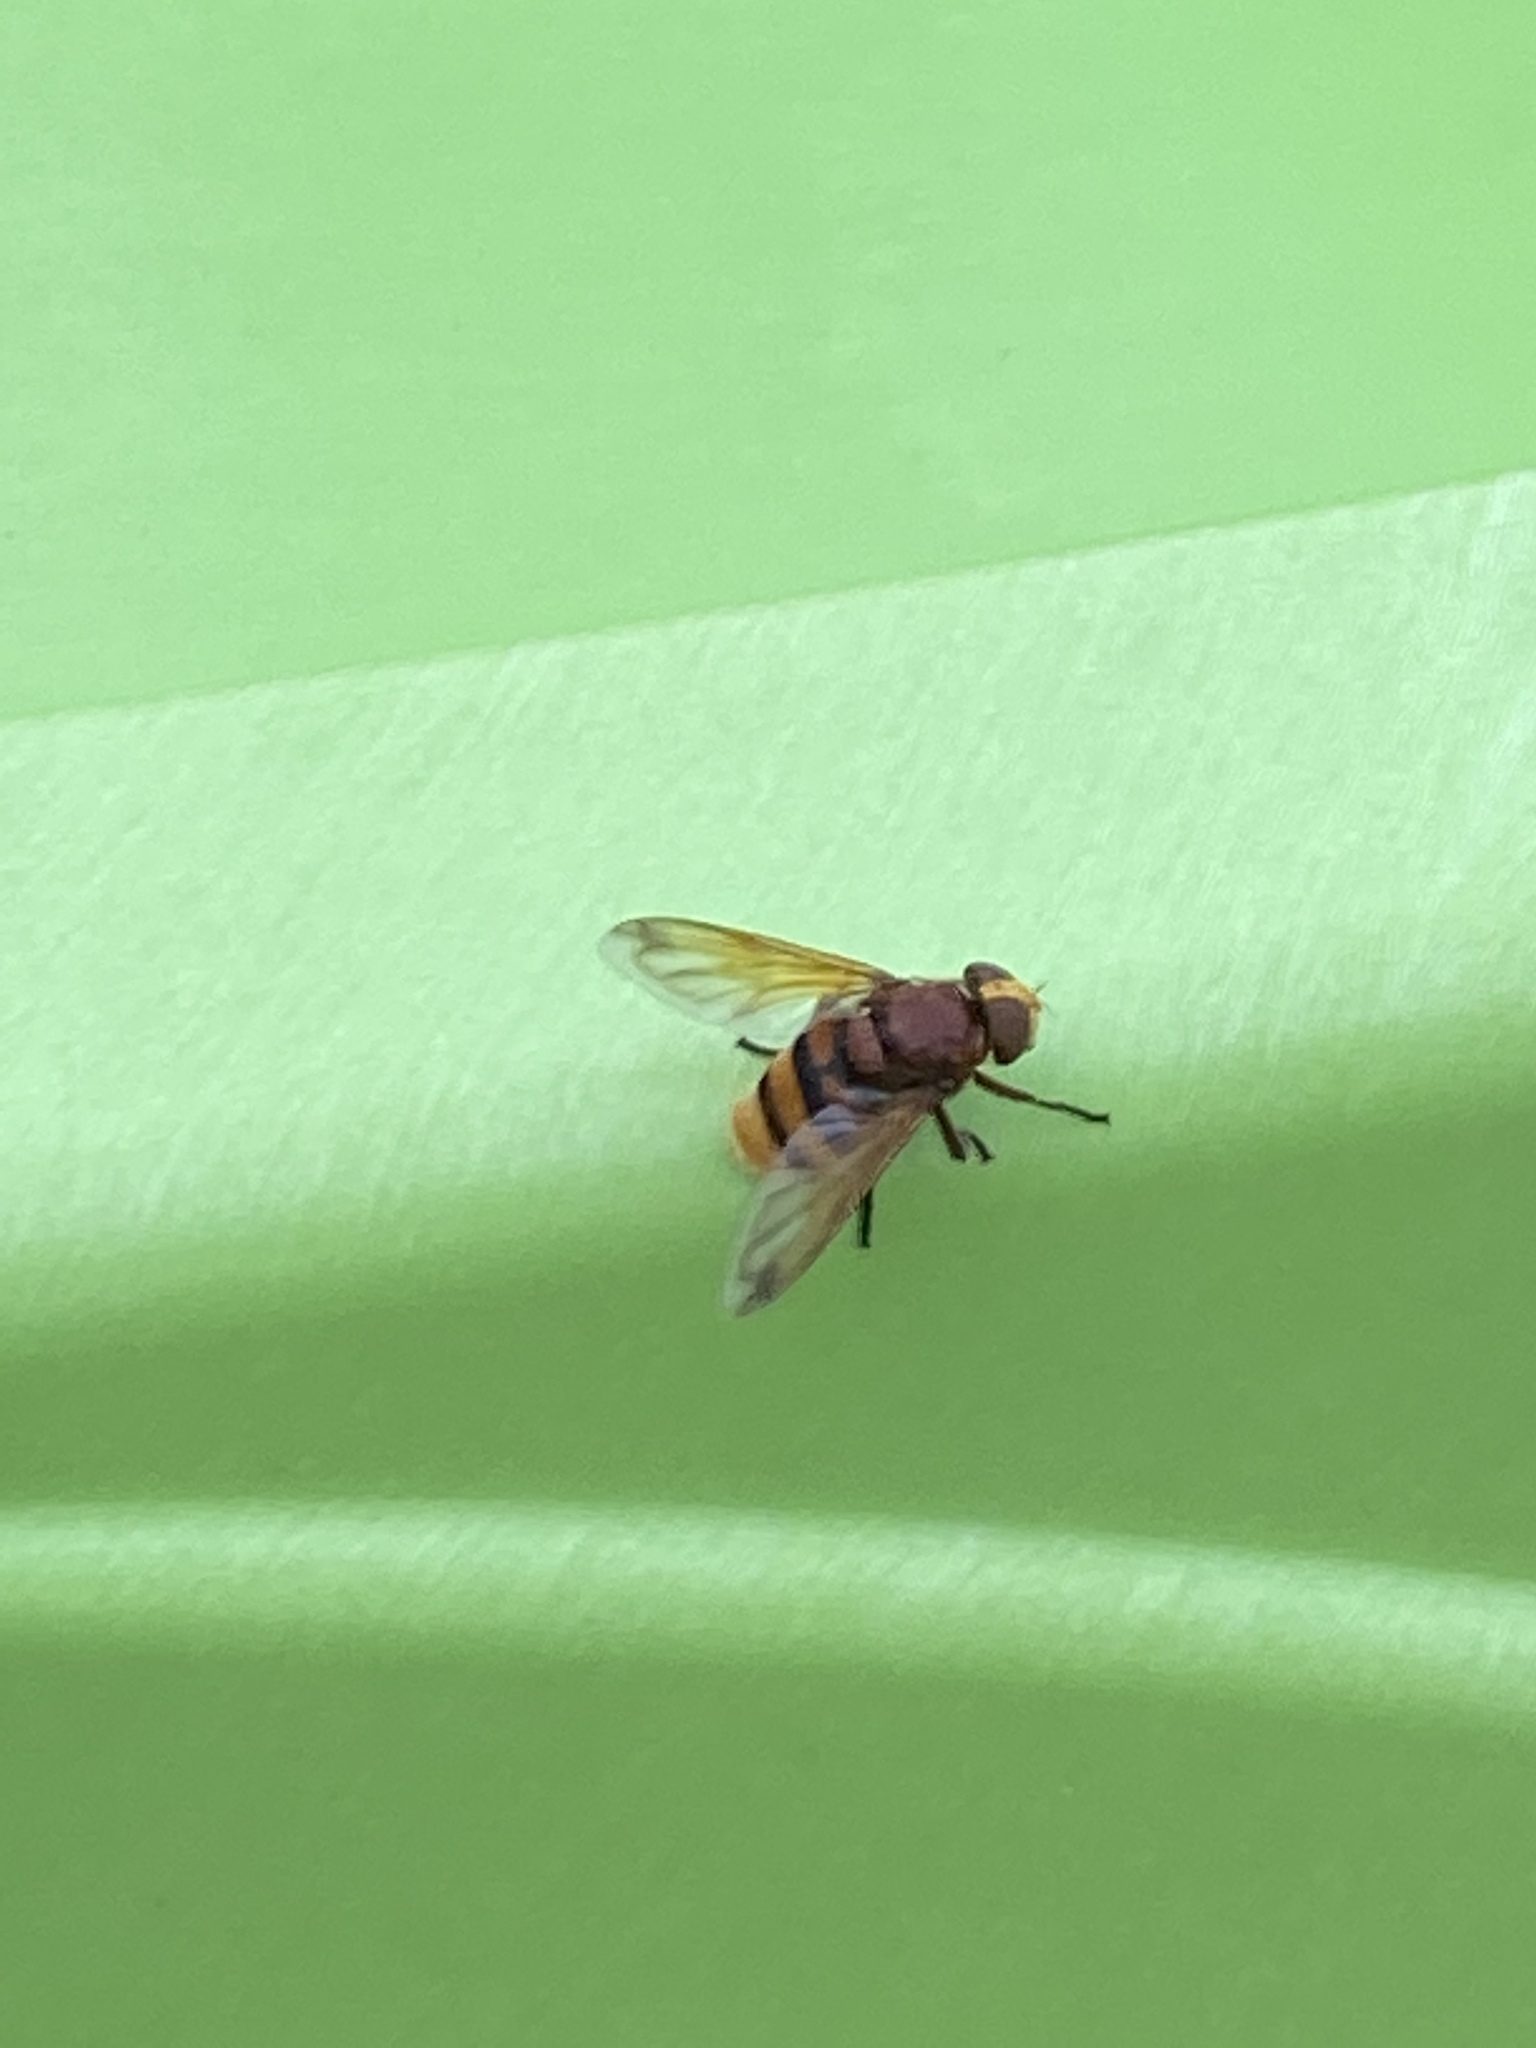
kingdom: Animalia
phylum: Arthropoda
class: Insecta
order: Diptera
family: Syrphidae
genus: Volucella
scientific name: Volucella zonaria
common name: Hornet hoverfly
